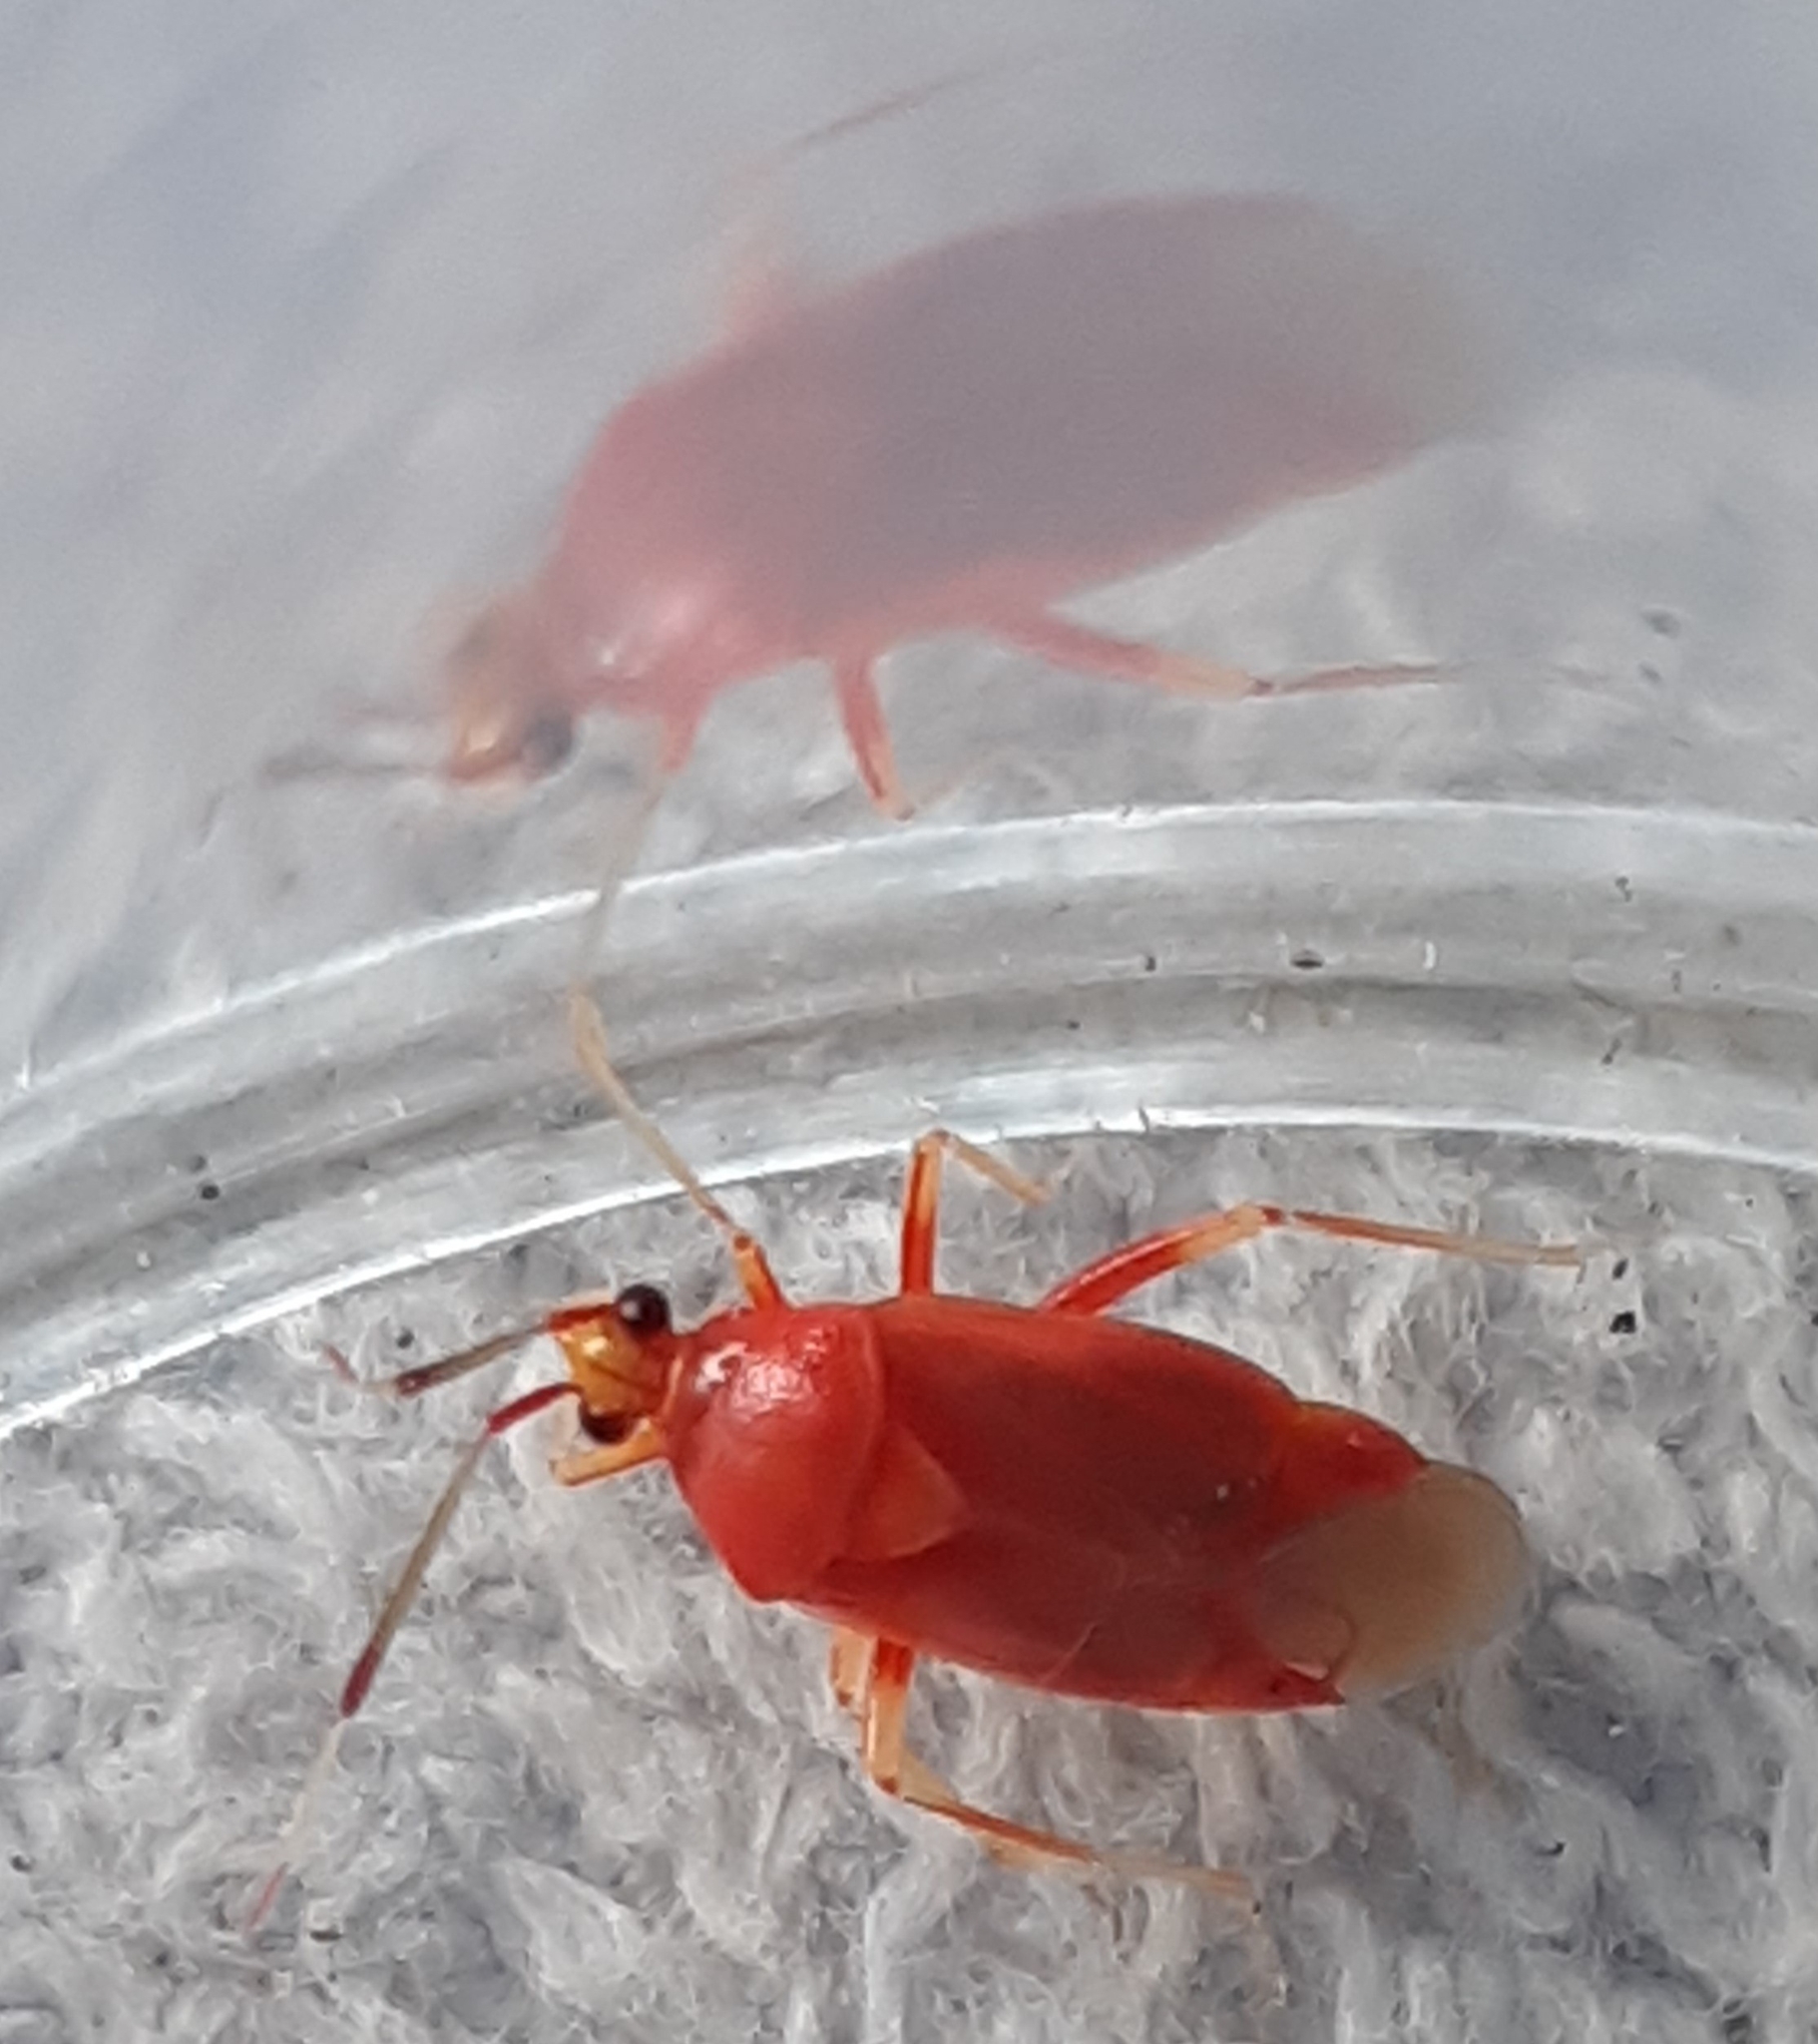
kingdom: Animalia
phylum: Arthropoda
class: Insecta
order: Hemiptera
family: Miridae
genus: Deraeocoris
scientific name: Deraeocoris ruber
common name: Plant bug
